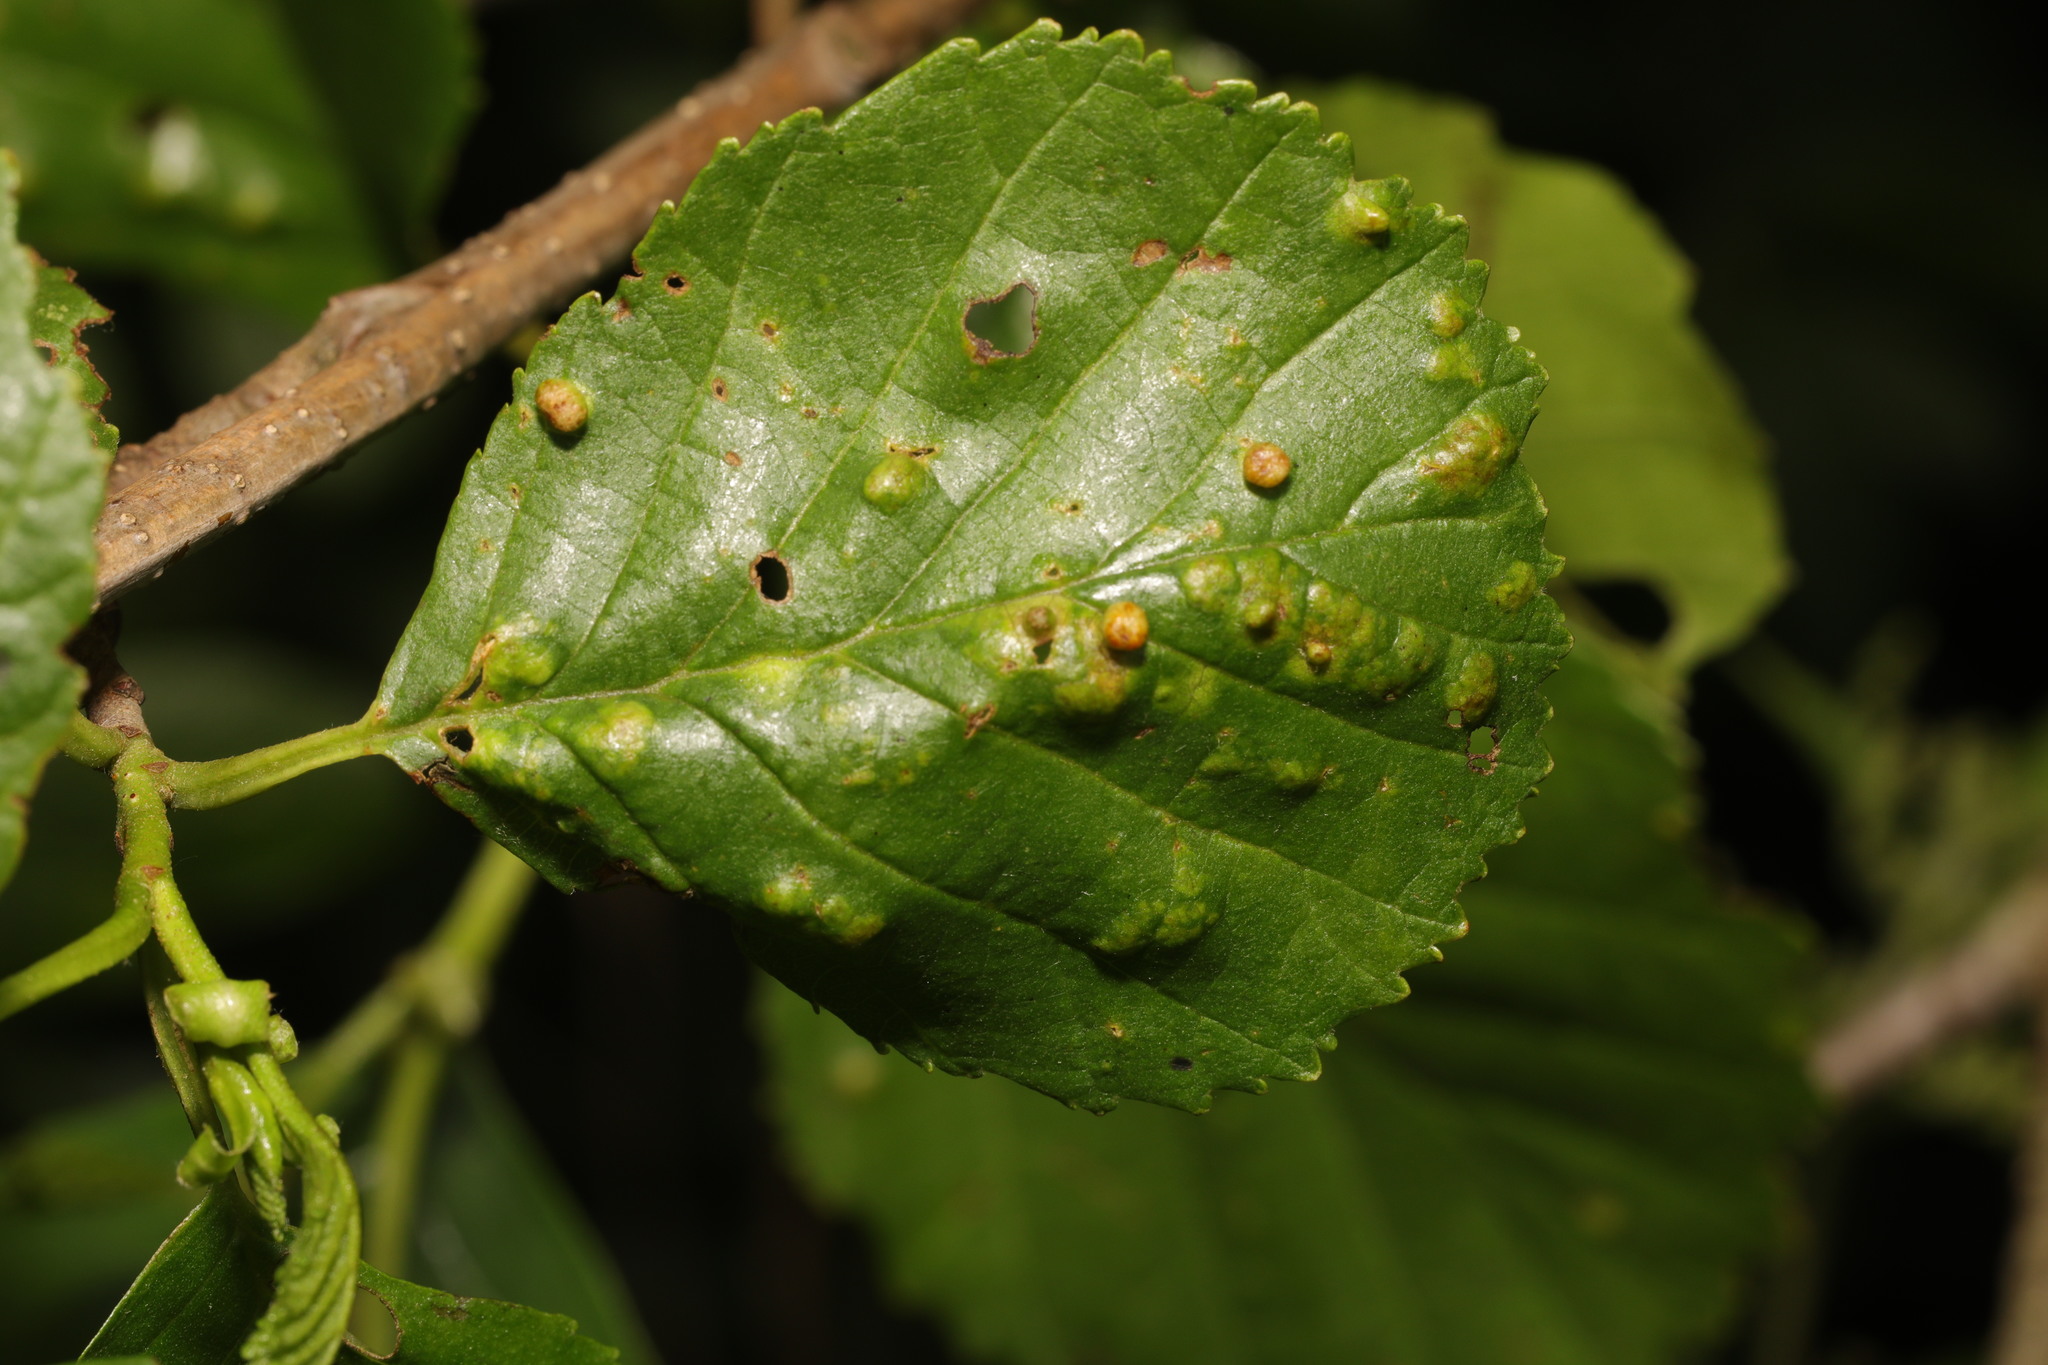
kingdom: Animalia
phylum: Arthropoda
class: Arachnida
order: Trombidiformes
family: Eriophyidae
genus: Eriophyes
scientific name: Eriophyes laevis
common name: Alder leaf gall mite
